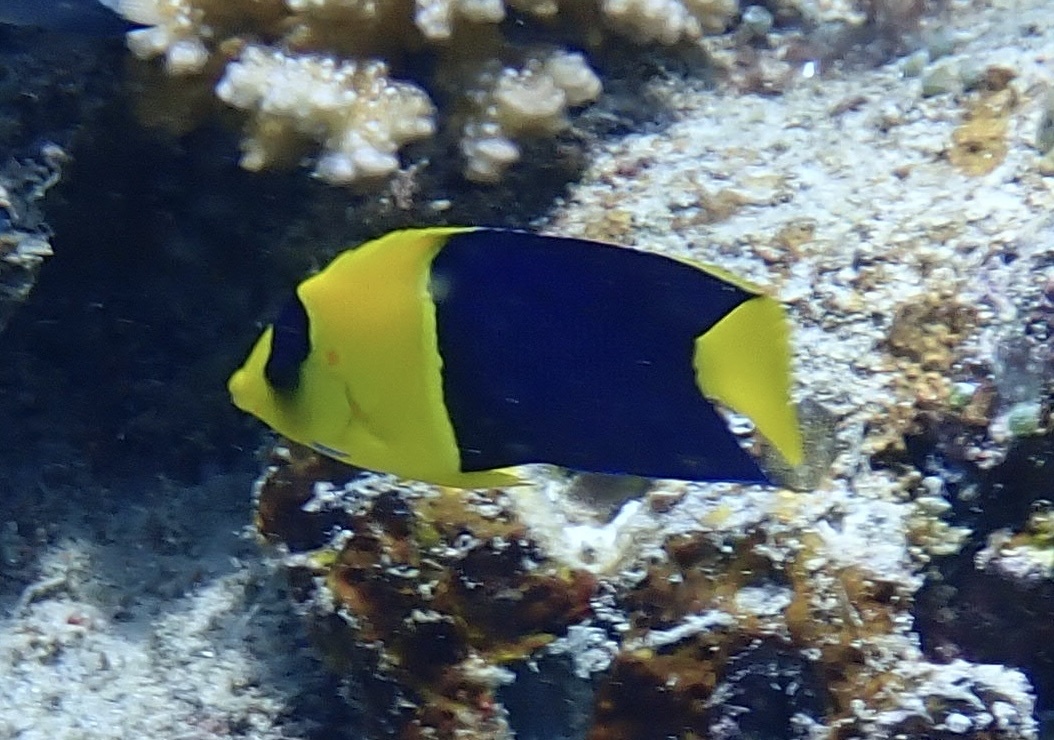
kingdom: Animalia
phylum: Chordata
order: Perciformes
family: Pomacanthidae
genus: Centropyge
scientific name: Centropyge bicolor
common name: Bicolor angelfish
